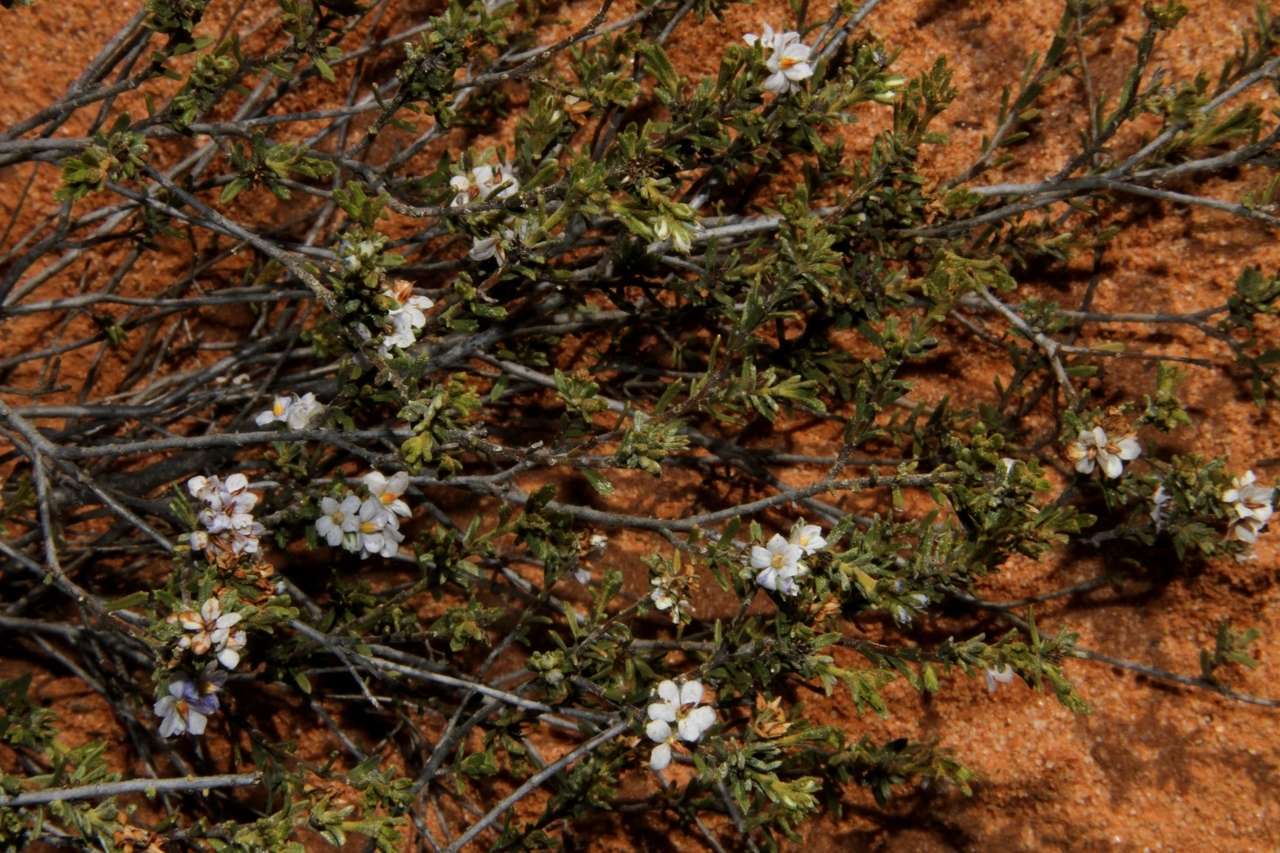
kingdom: Plantae
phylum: Tracheophyta
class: Magnoliopsida
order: Boraginales
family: Ehretiaceae
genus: Halgania
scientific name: Halgania cyanea
